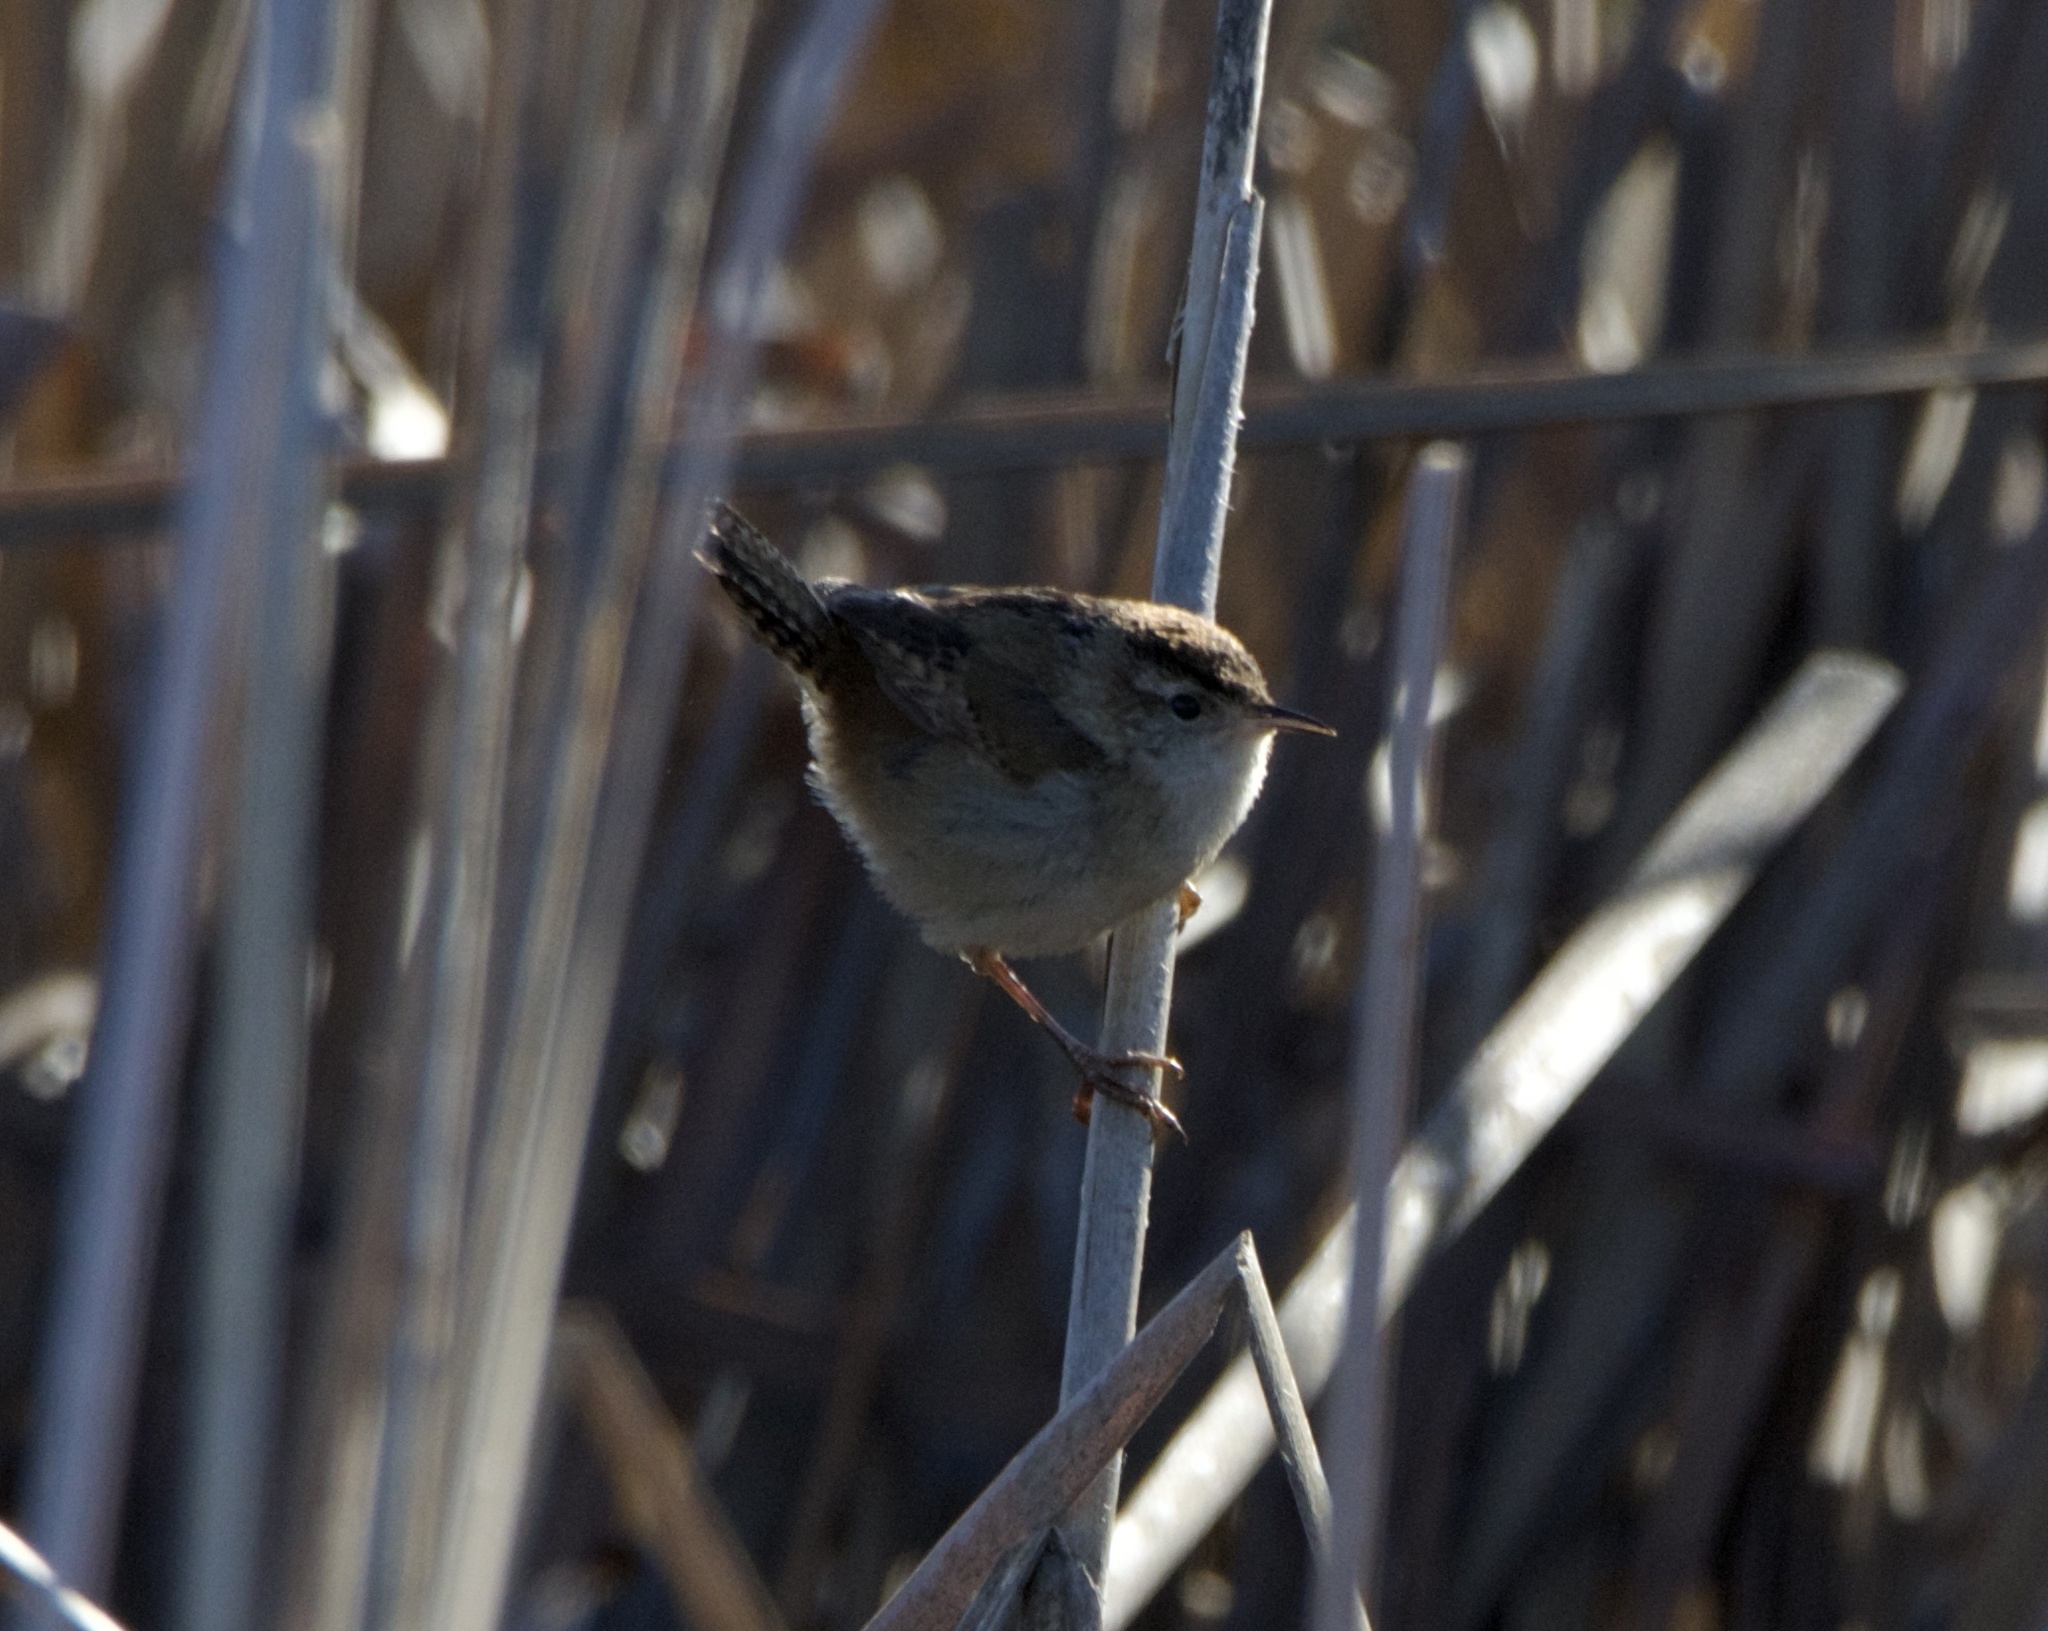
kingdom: Animalia
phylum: Chordata
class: Aves
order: Passeriformes
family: Troglodytidae
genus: Cistothorus
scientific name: Cistothorus palustris
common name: Marsh wren
